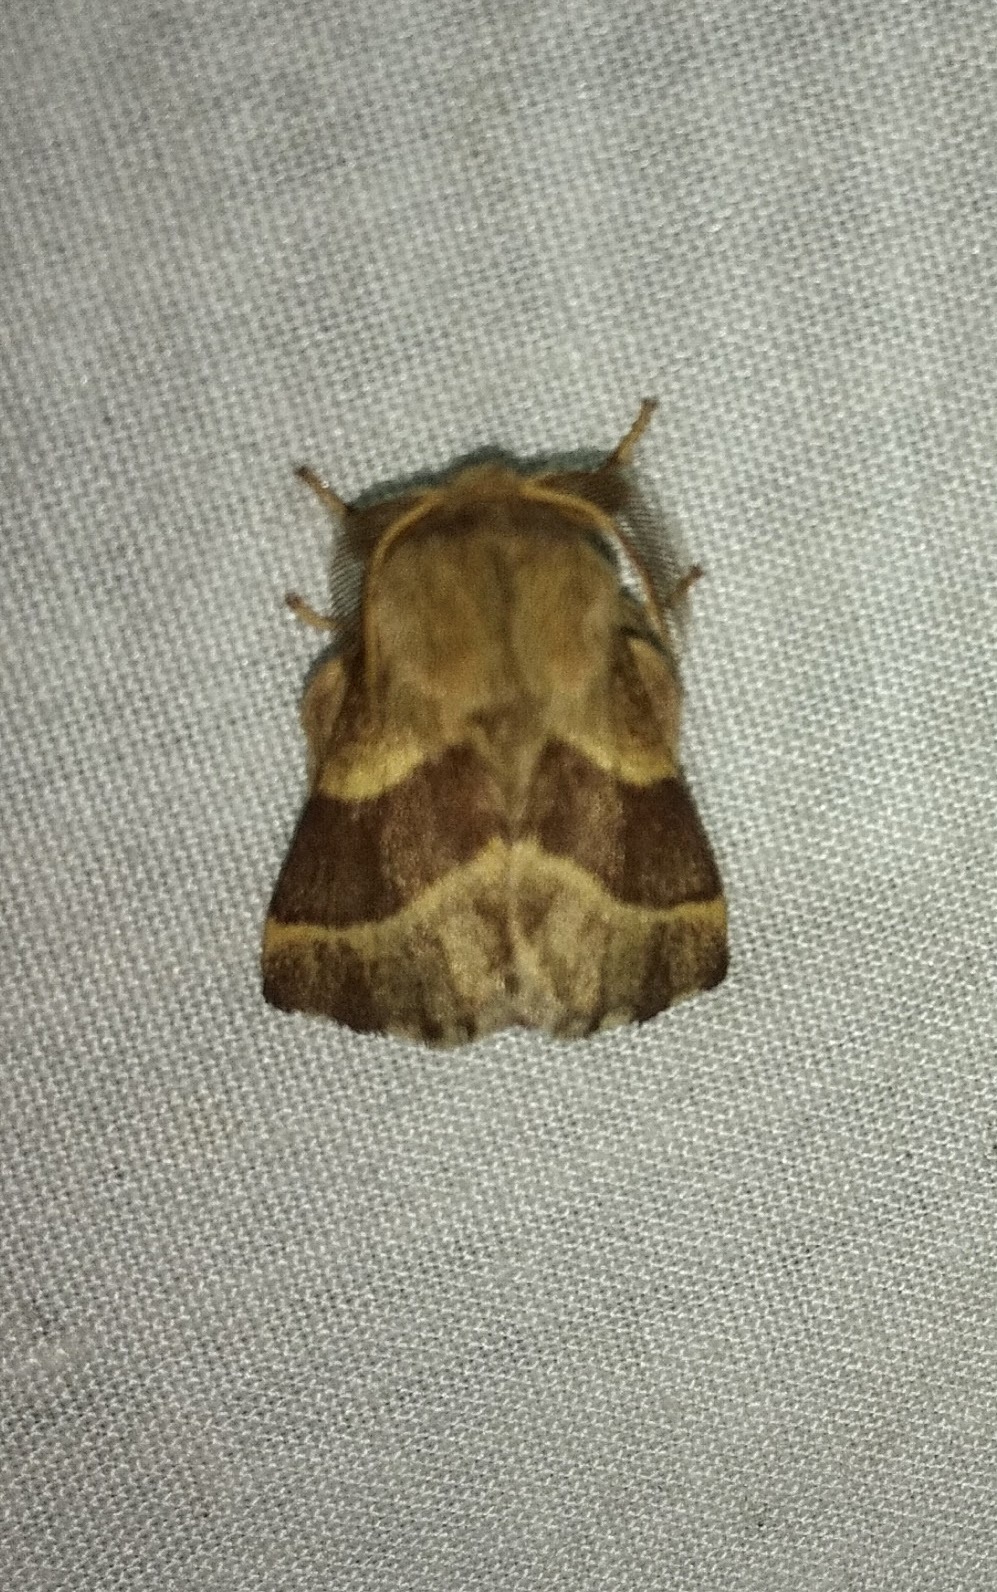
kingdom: Animalia
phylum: Arthropoda
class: Insecta
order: Lepidoptera
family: Lasiocampidae
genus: Malacosoma
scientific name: Malacosoma californica
